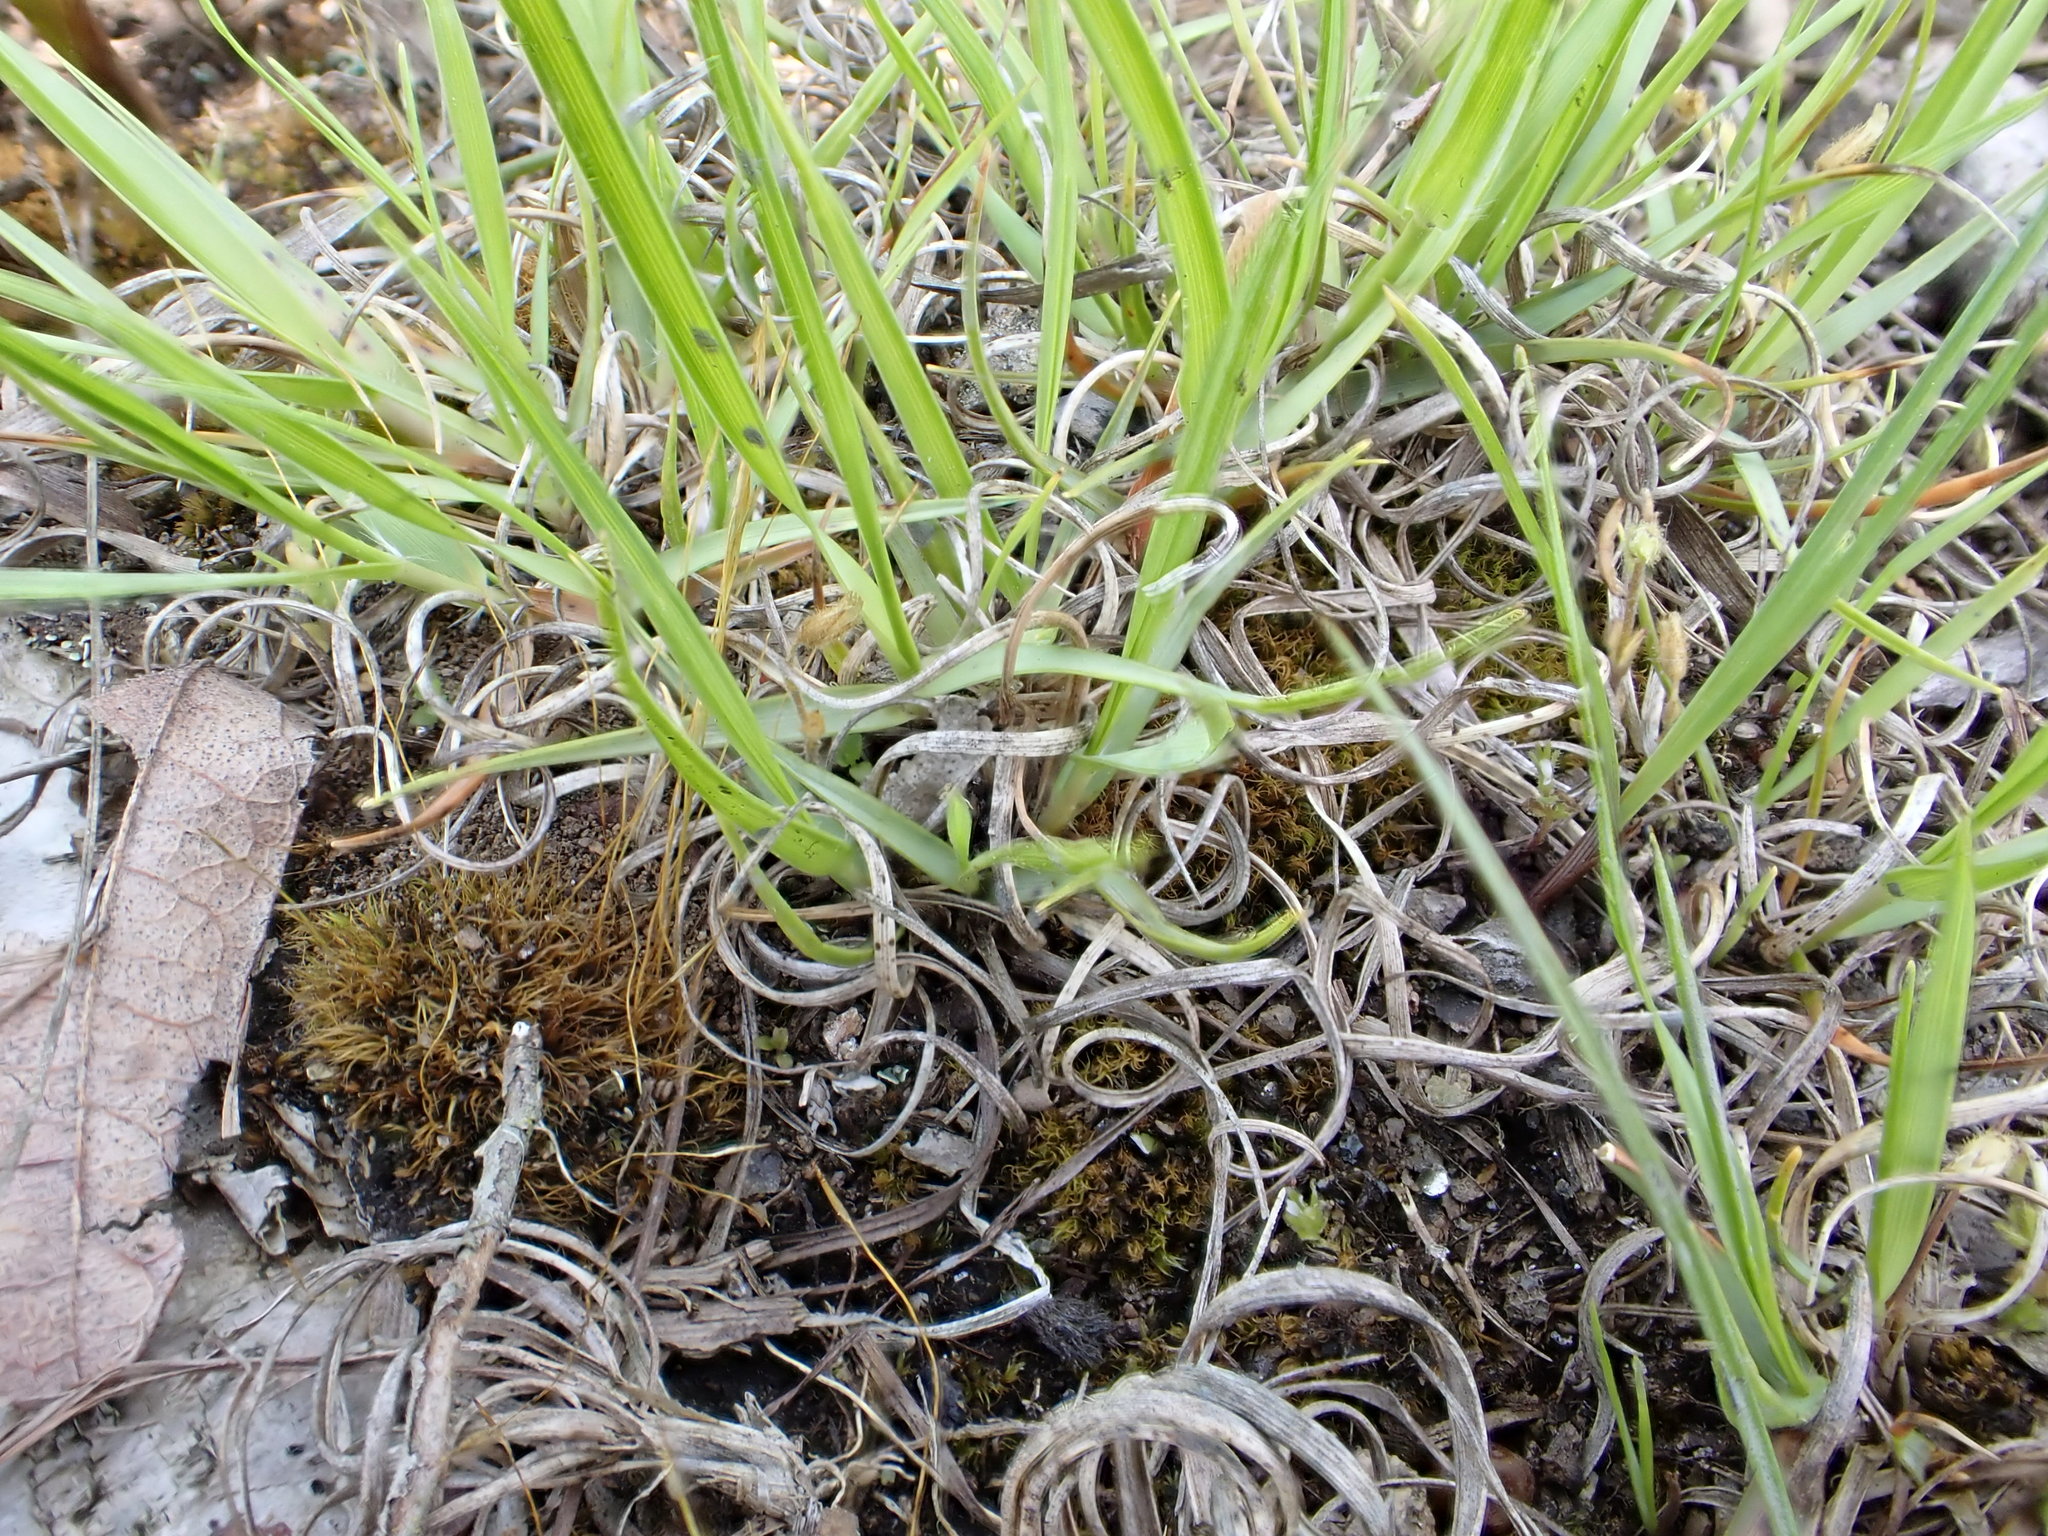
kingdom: Plantae
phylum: Tracheophyta
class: Liliopsida
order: Poales
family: Poaceae
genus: Danthonia
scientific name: Danthonia spicata
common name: Common wild oatgrass
